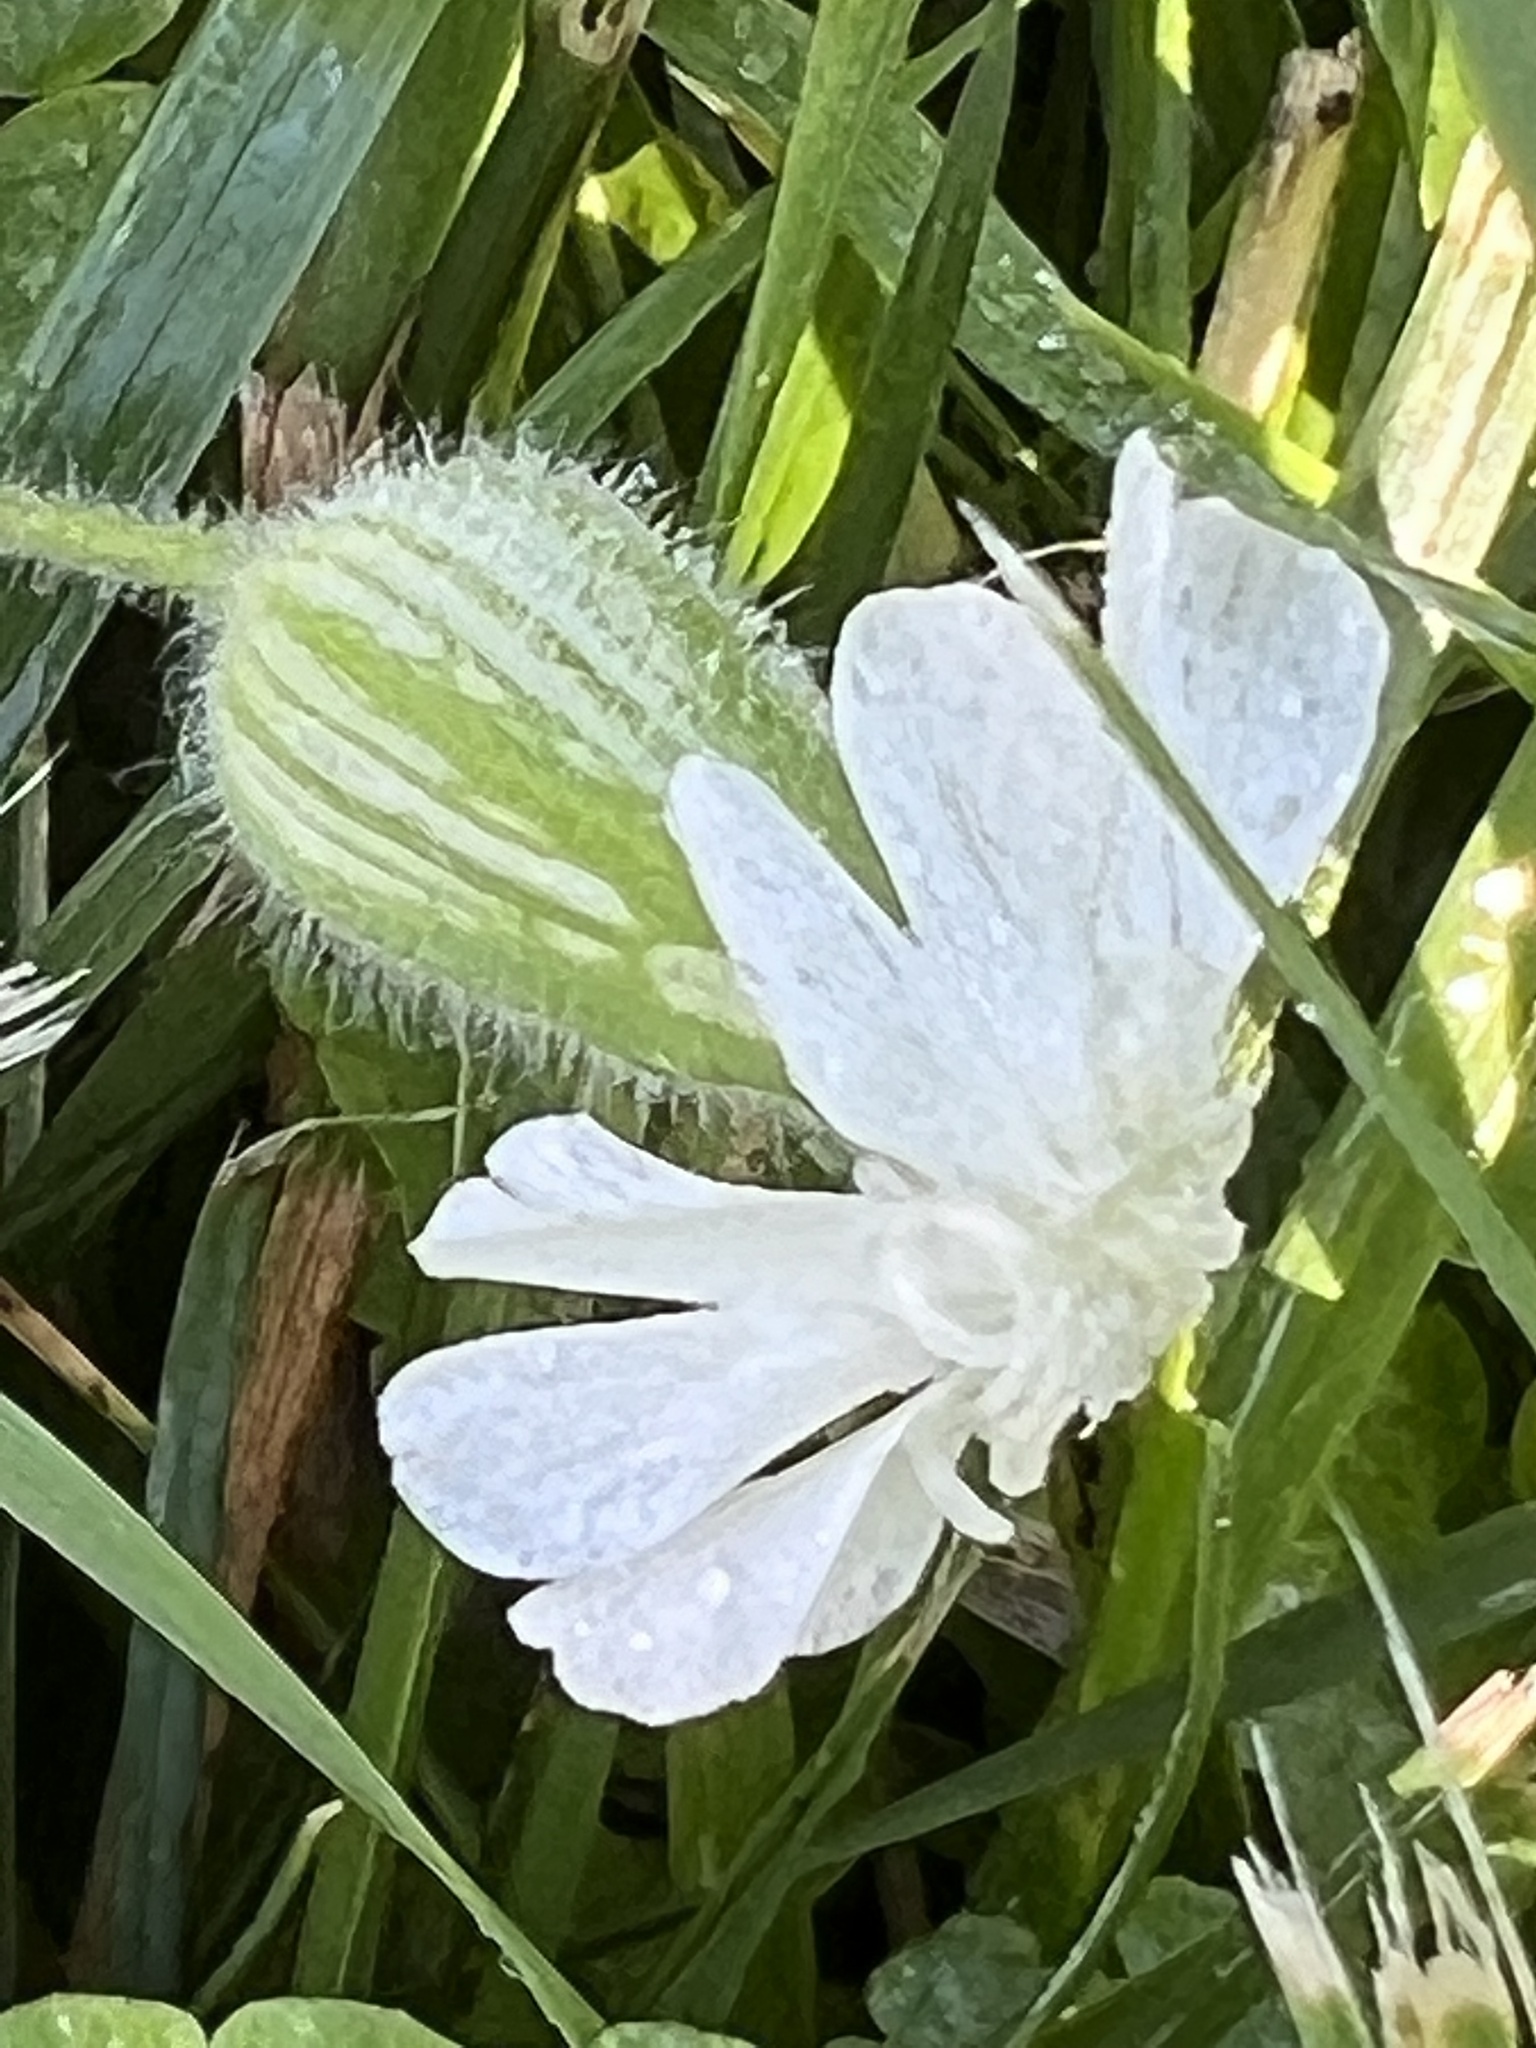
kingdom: Plantae
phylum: Tracheophyta
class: Magnoliopsida
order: Caryophyllales
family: Caryophyllaceae
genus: Silene
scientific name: Silene latifolia
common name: White campion
